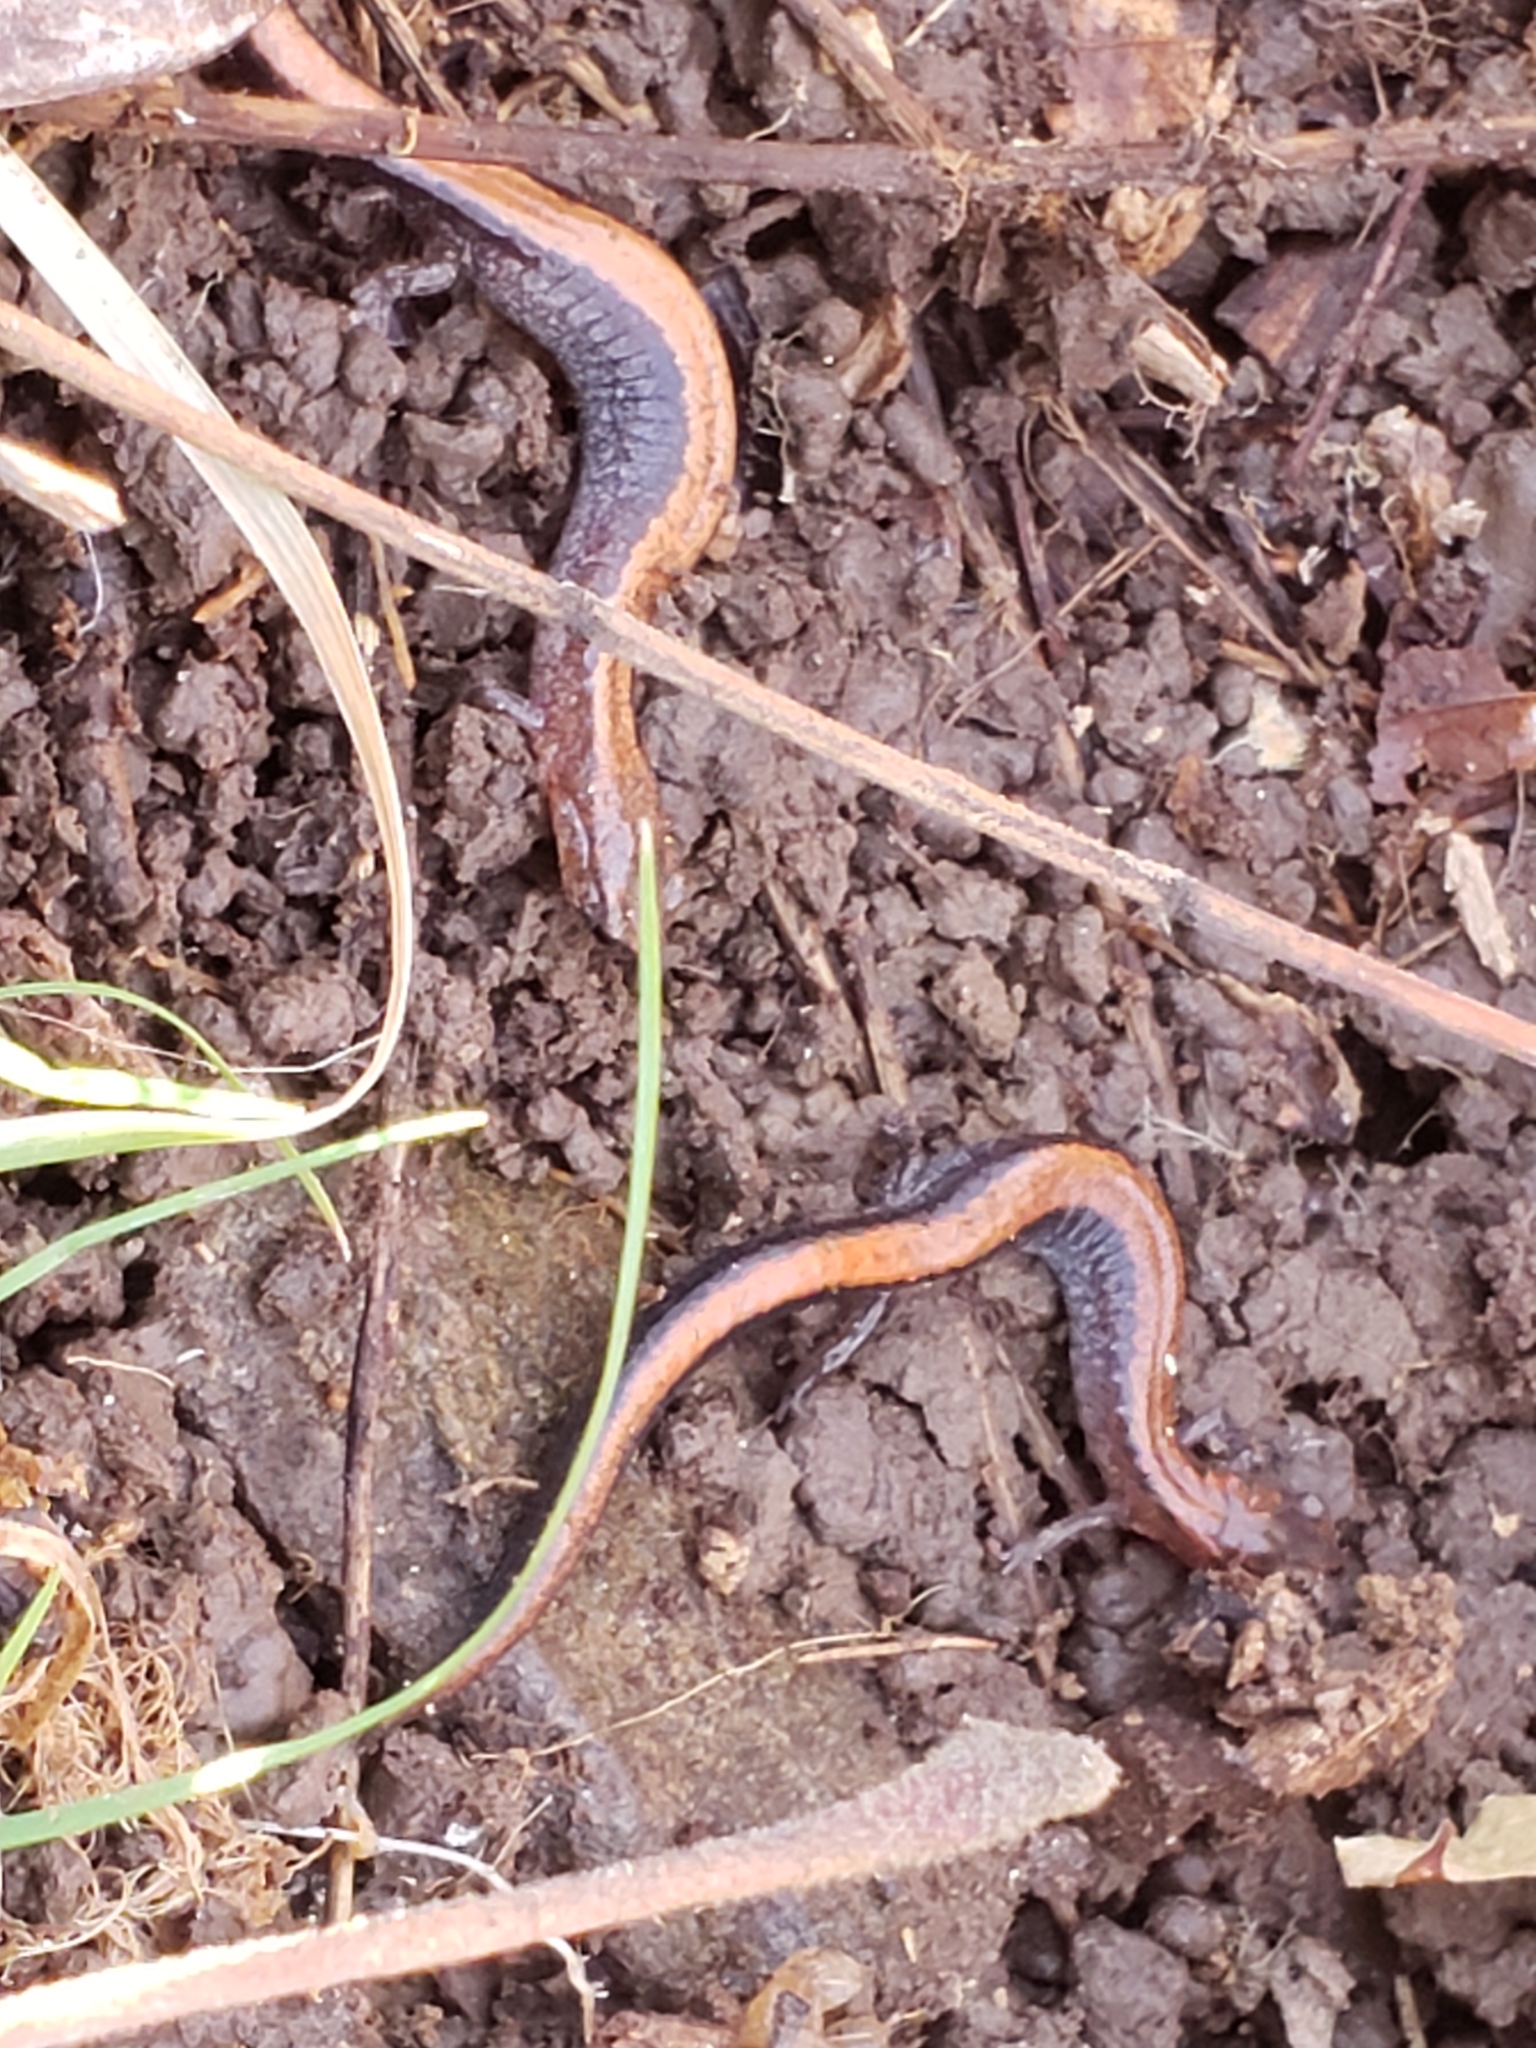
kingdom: Animalia
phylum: Chordata
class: Amphibia
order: Caudata
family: Plethodontidae
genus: Plethodon
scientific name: Plethodon cinereus
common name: Redback salamander
